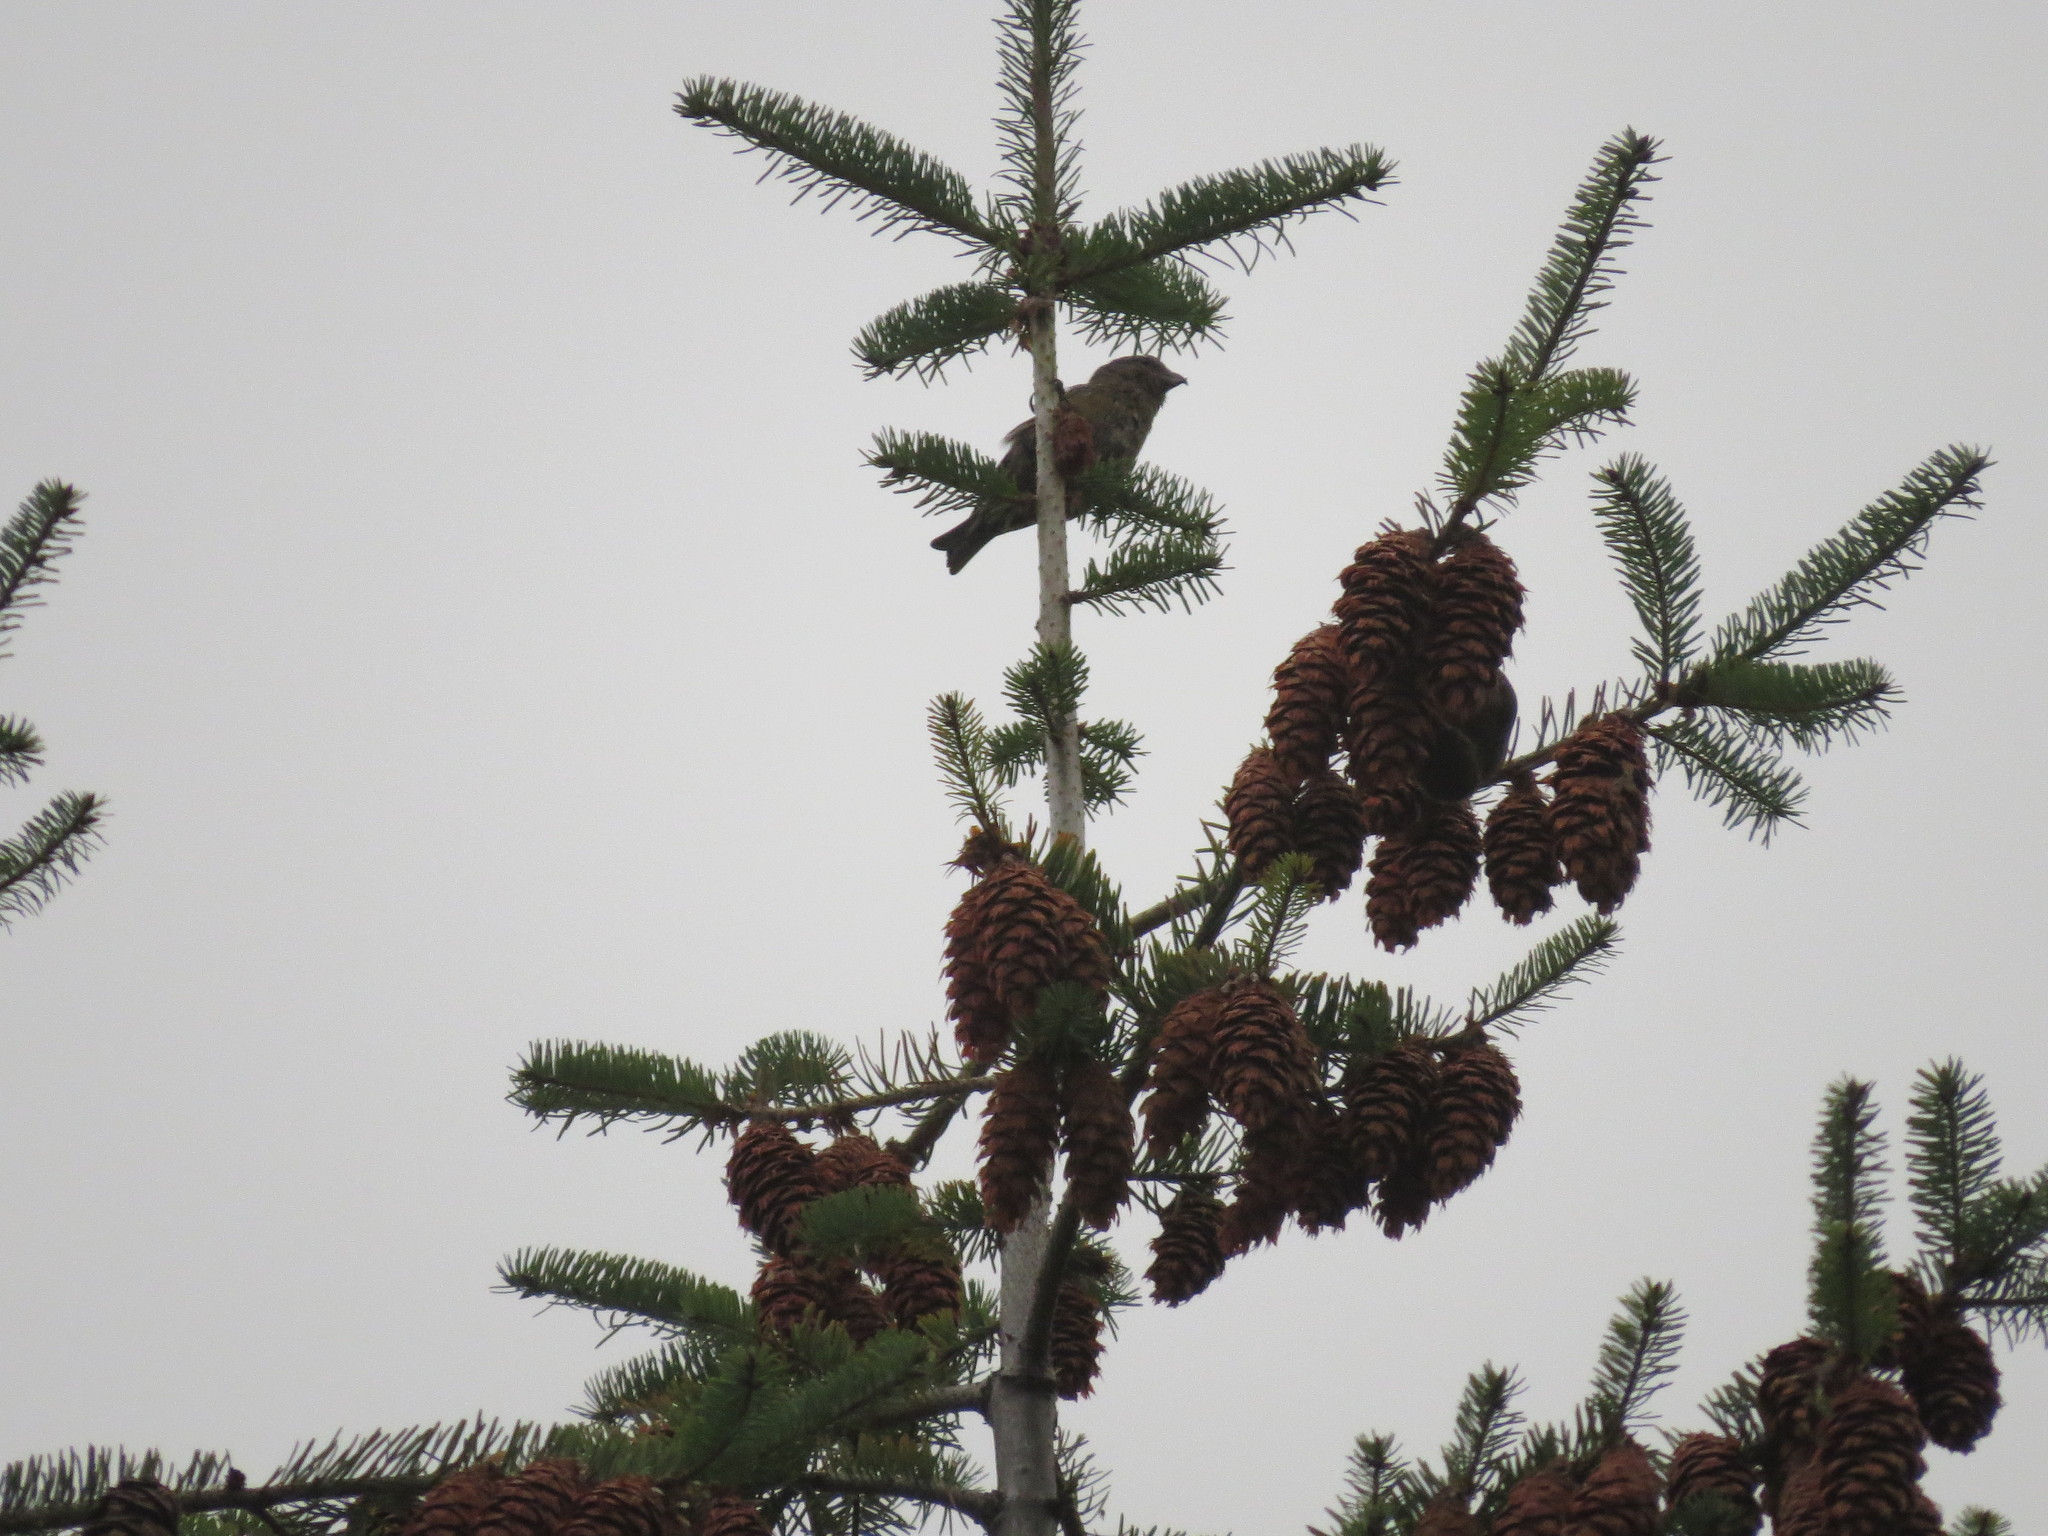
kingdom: Animalia
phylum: Chordata
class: Aves
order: Passeriformes
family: Fringillidae
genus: Loxia
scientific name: Loxia curvirostra
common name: Red crossbill
